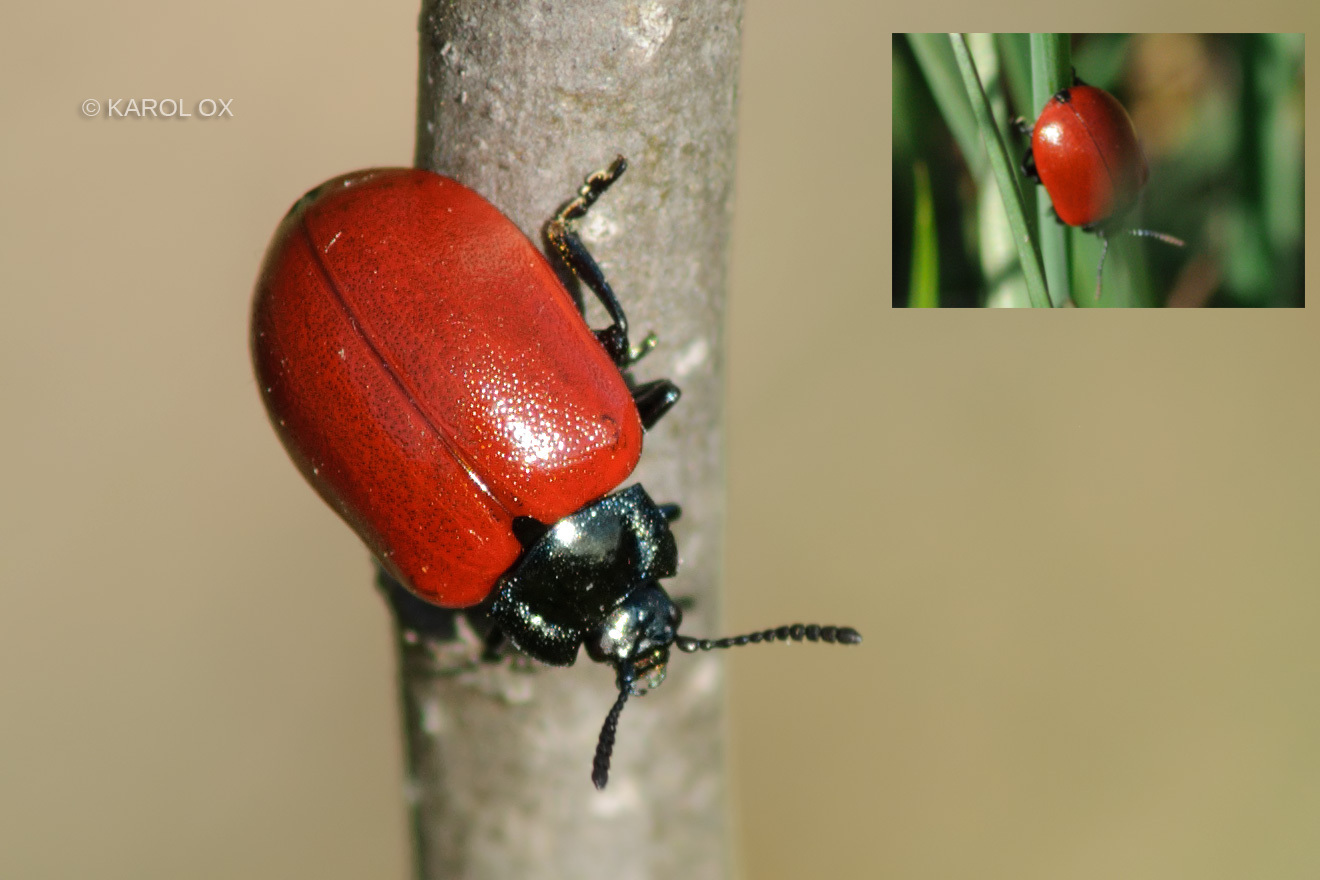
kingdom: Animalia
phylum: Arthropoda
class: Insecta
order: Coleoptera
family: Chrysomelidae
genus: Chrysomela
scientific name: Chrysomela populi
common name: Red poplar leaf beetle
